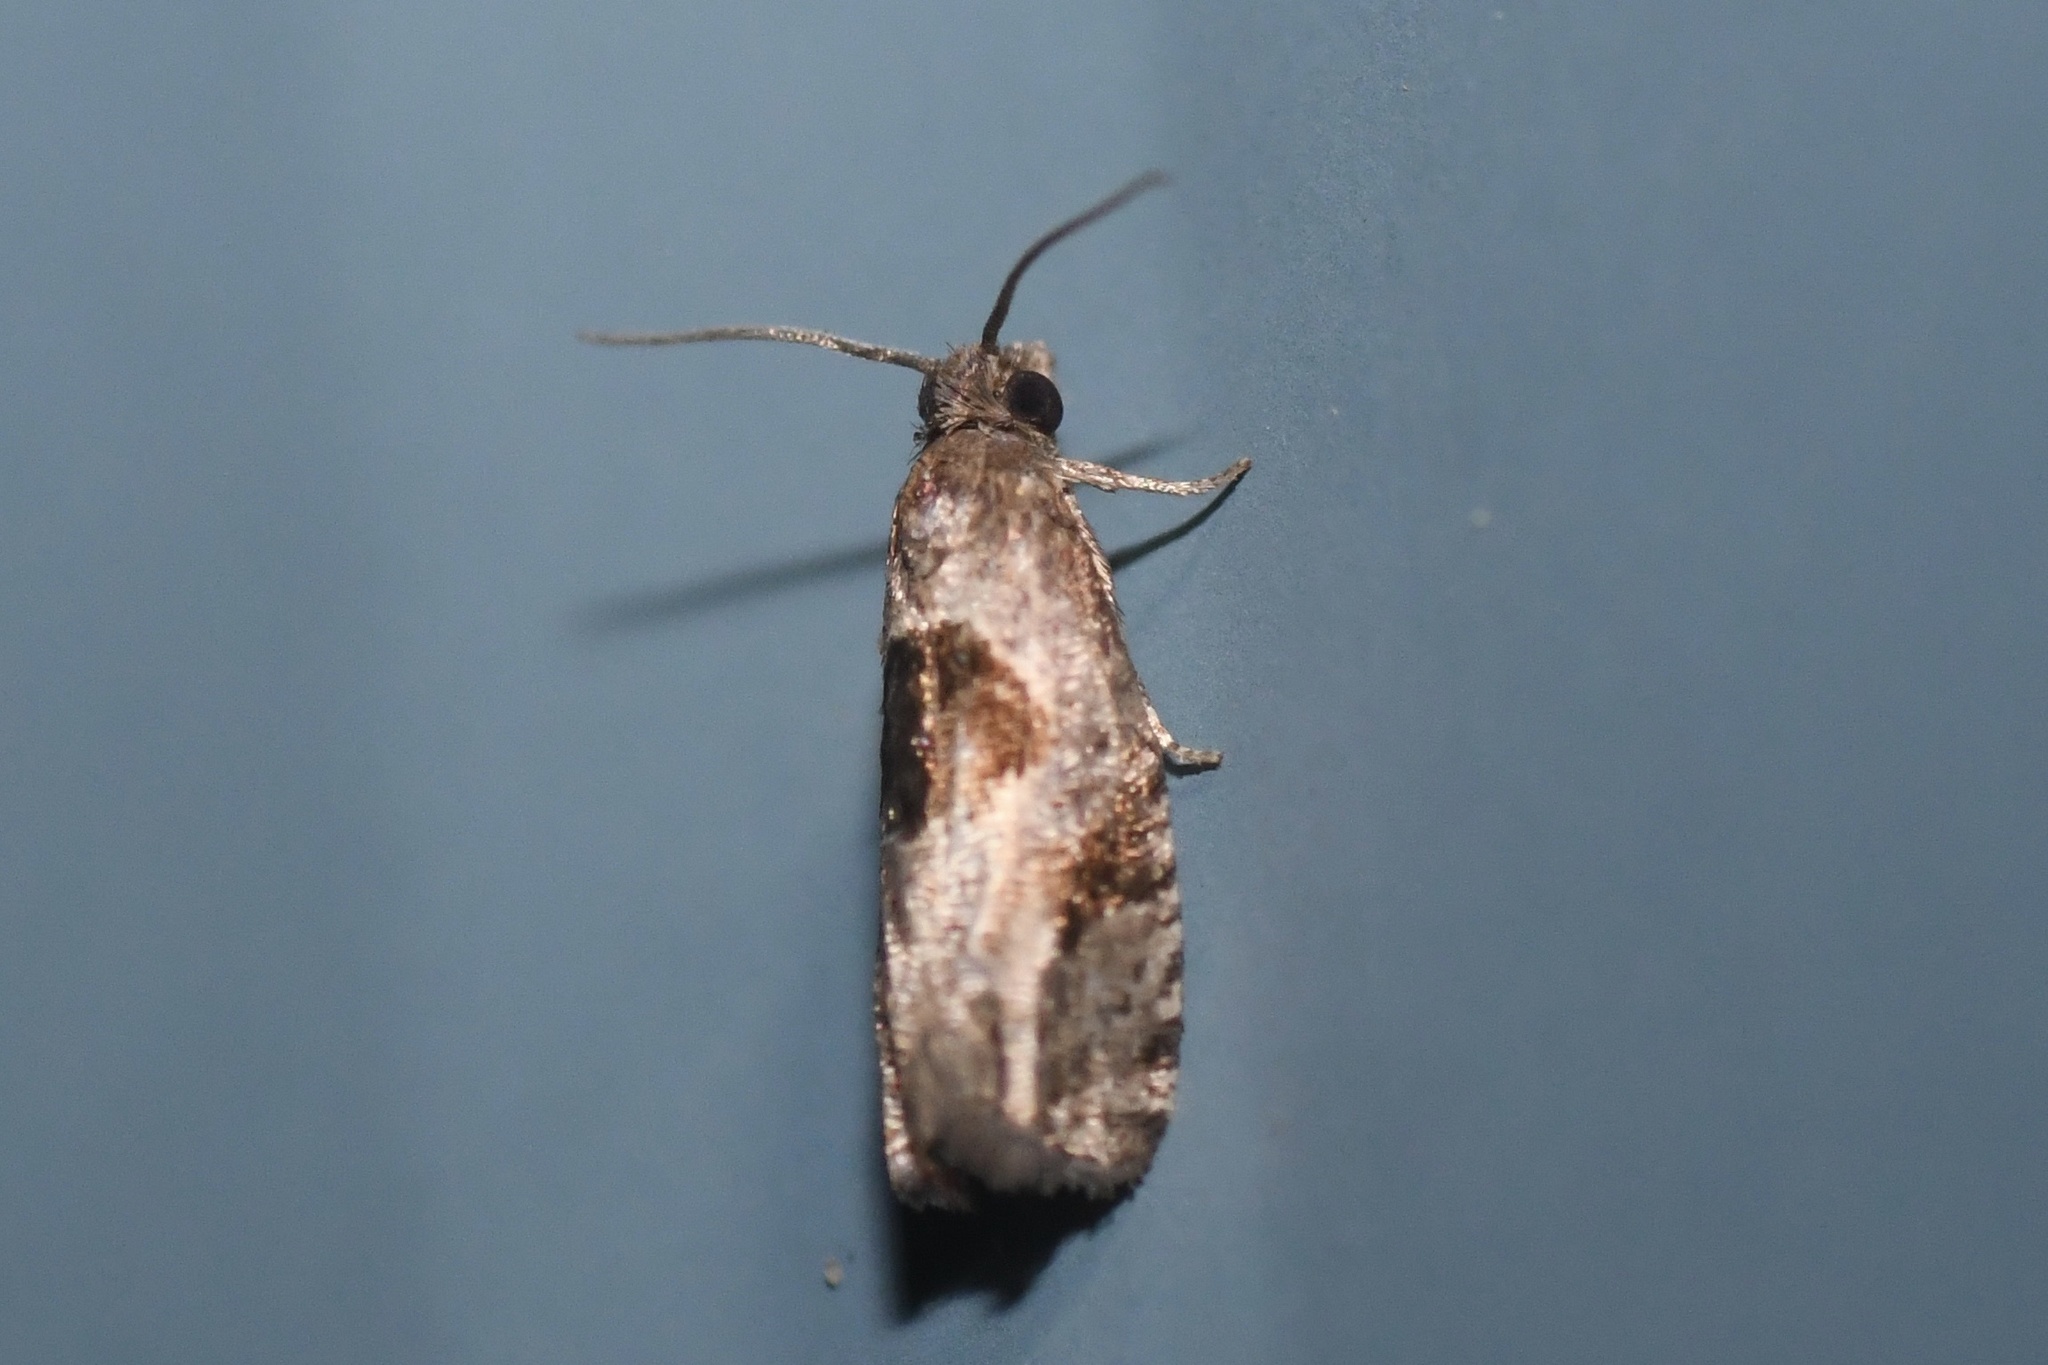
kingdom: Animalia
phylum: Arthropoda
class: Insecta
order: Lepidoptera
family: Tortricidae
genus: Epiblema
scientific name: Epiblema brightonana
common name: Brighton's epiblema moth
